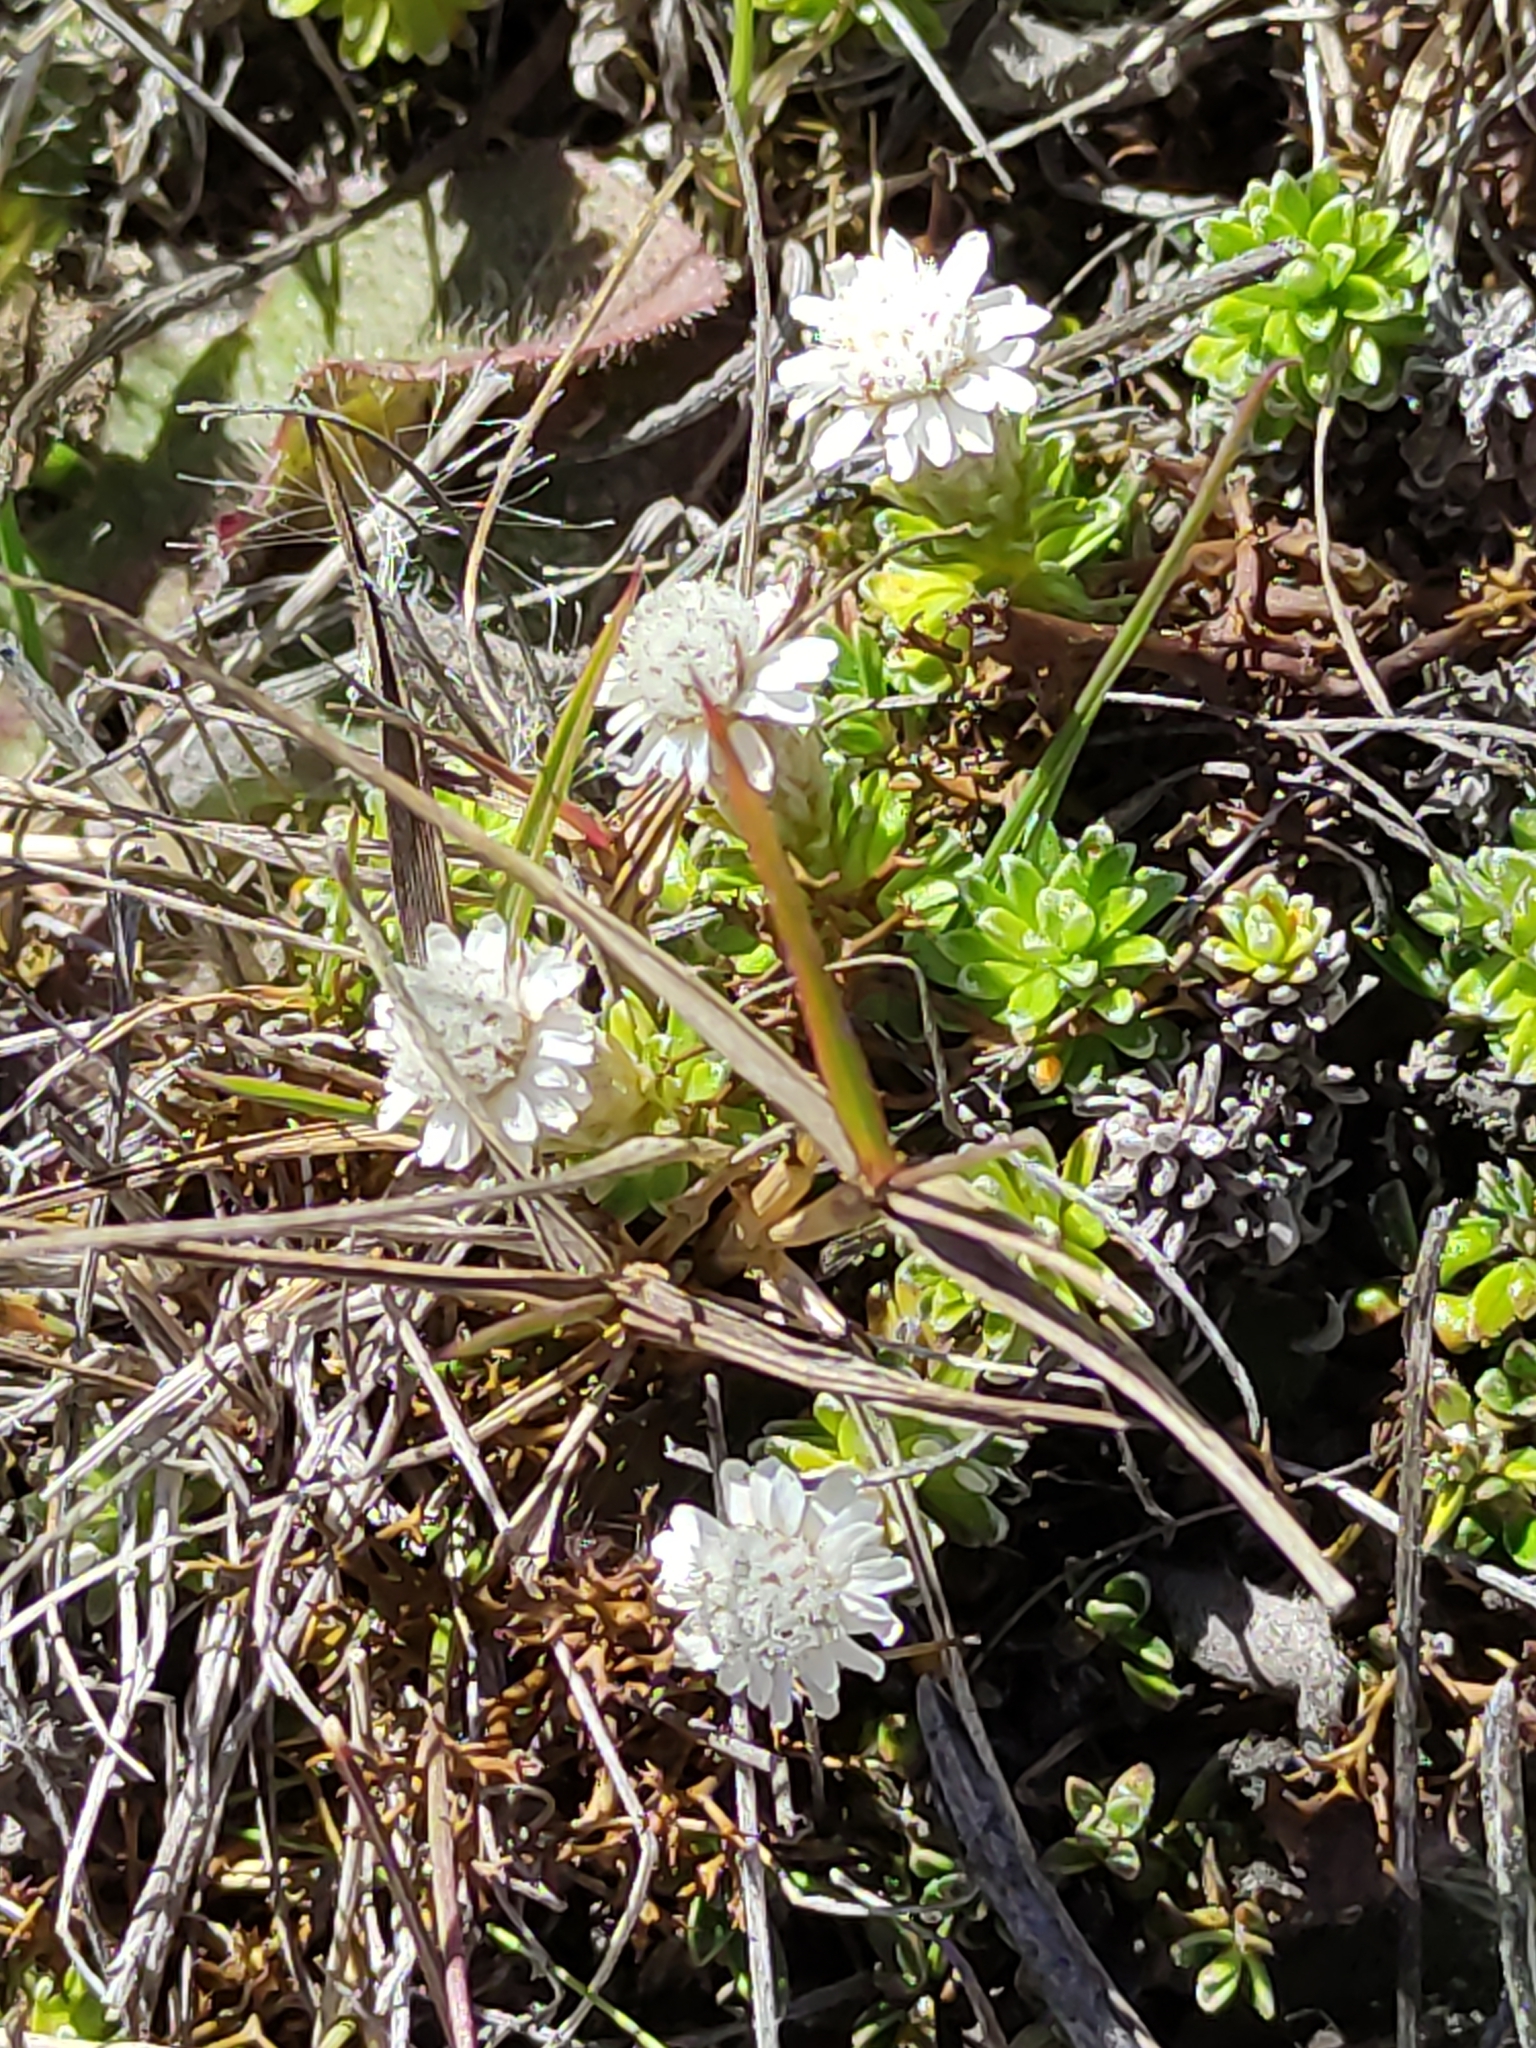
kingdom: Plantae
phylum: Tracheophyta
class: Magnoliopsida
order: Asterales
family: Asteraceae
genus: Raoulia
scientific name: Raoulia subsericea
